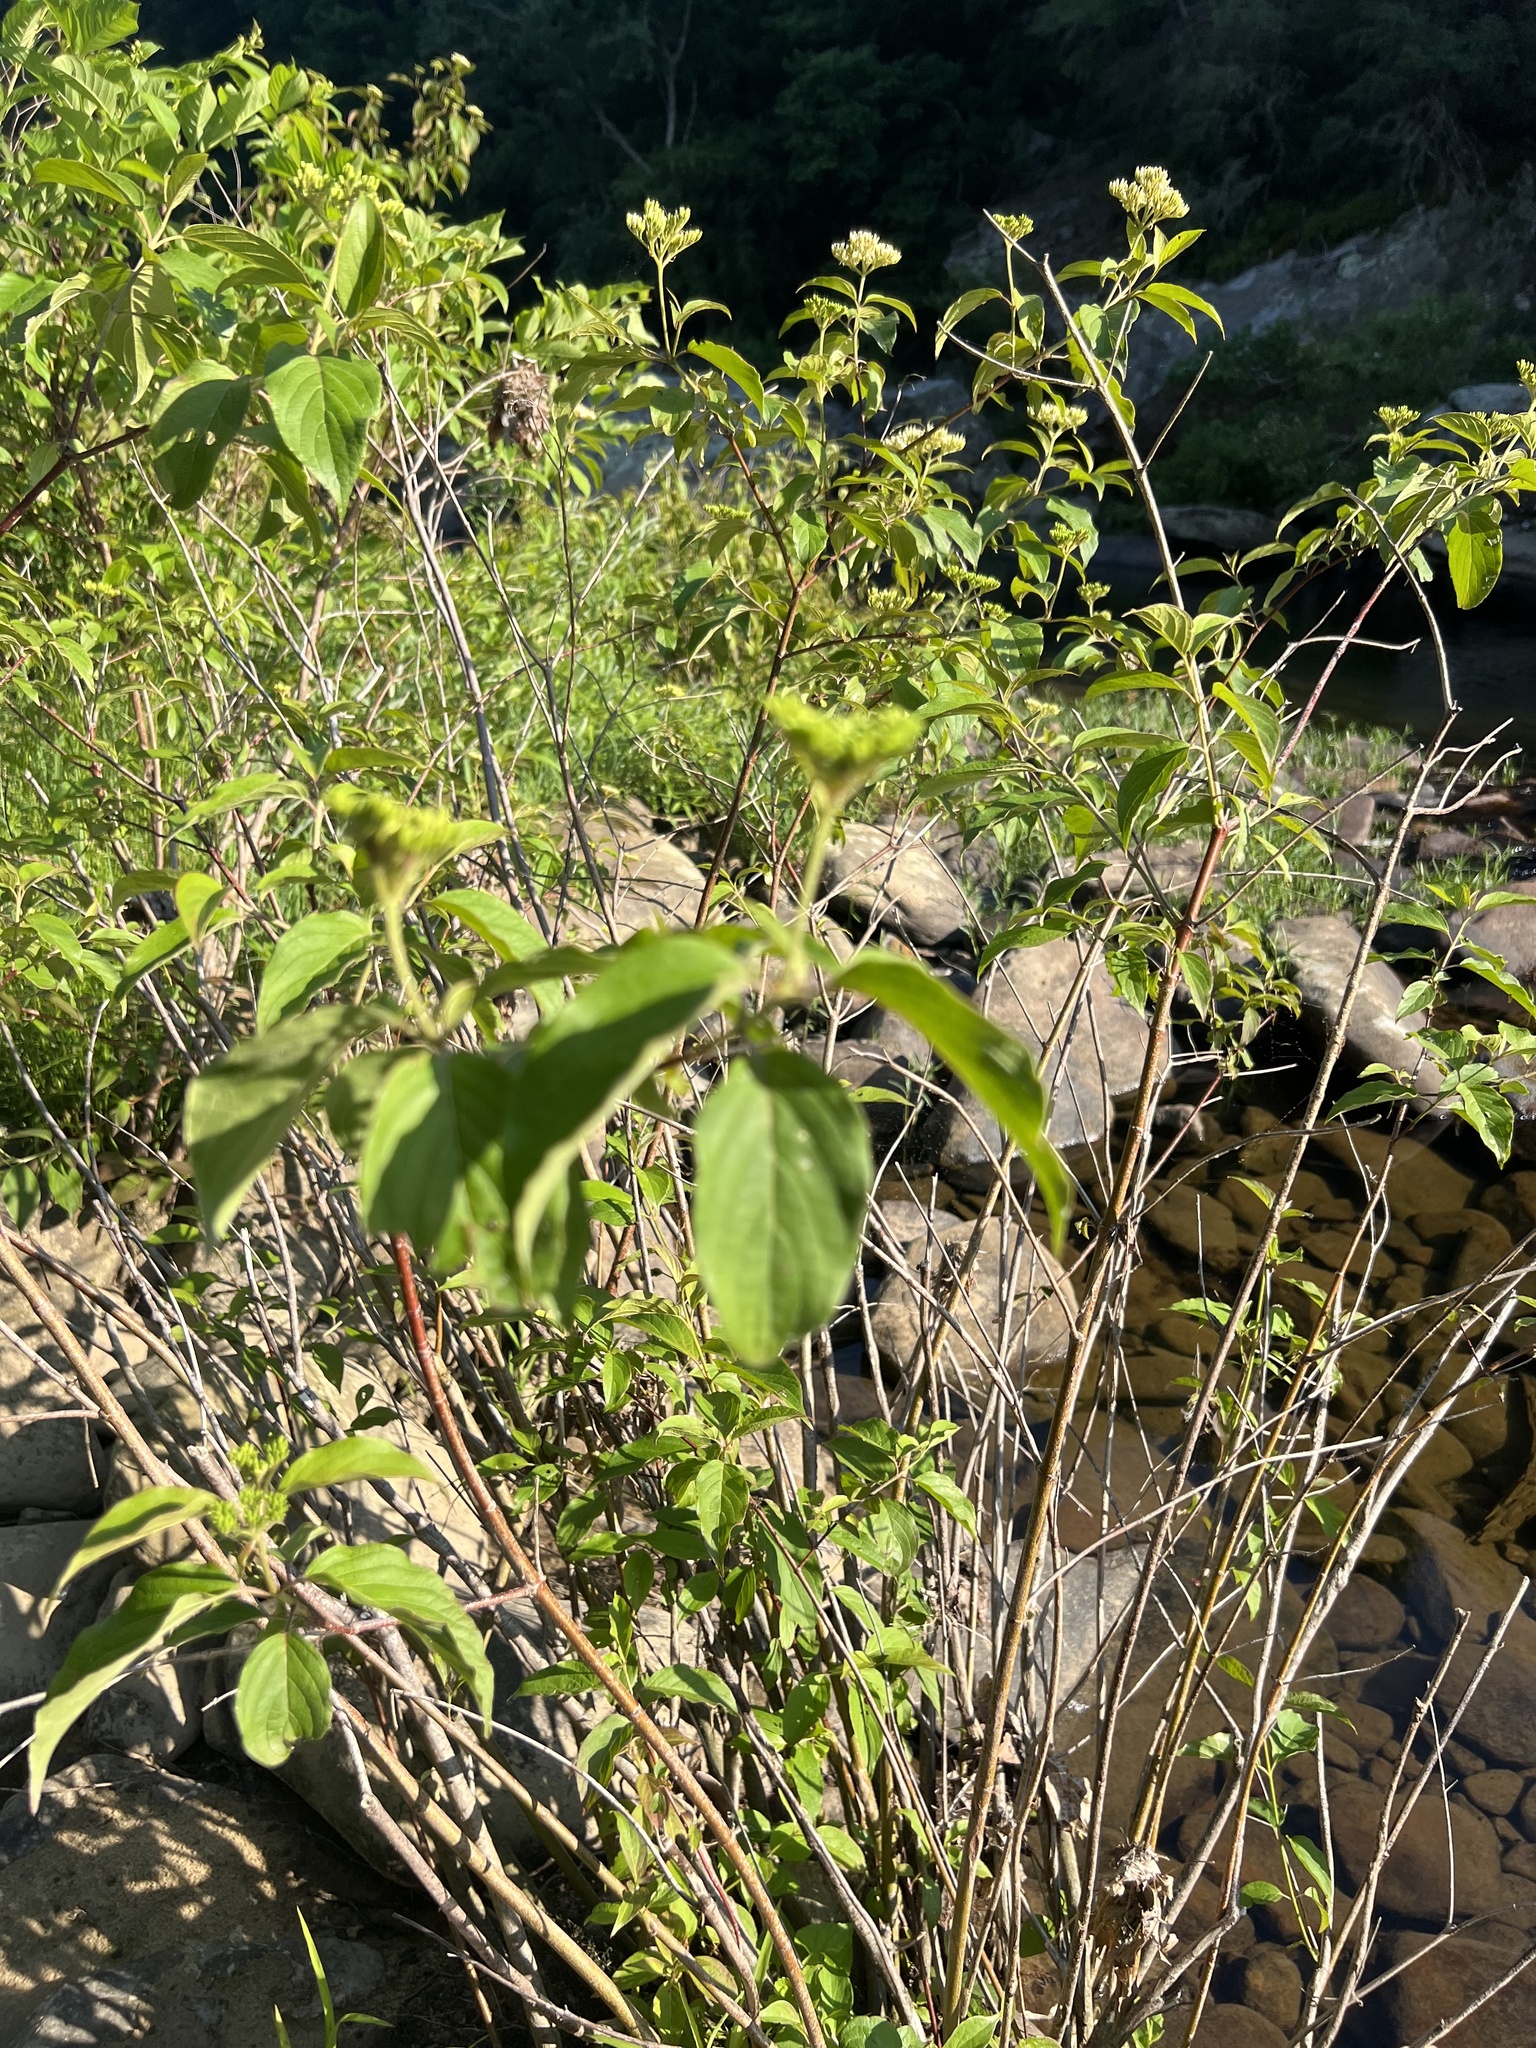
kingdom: Plantae
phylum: Tracheophyta
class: Magnoliopsida
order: Cornales
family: Cornaceae
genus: Cornus
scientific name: Cornus amomum
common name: Silky dogwood
